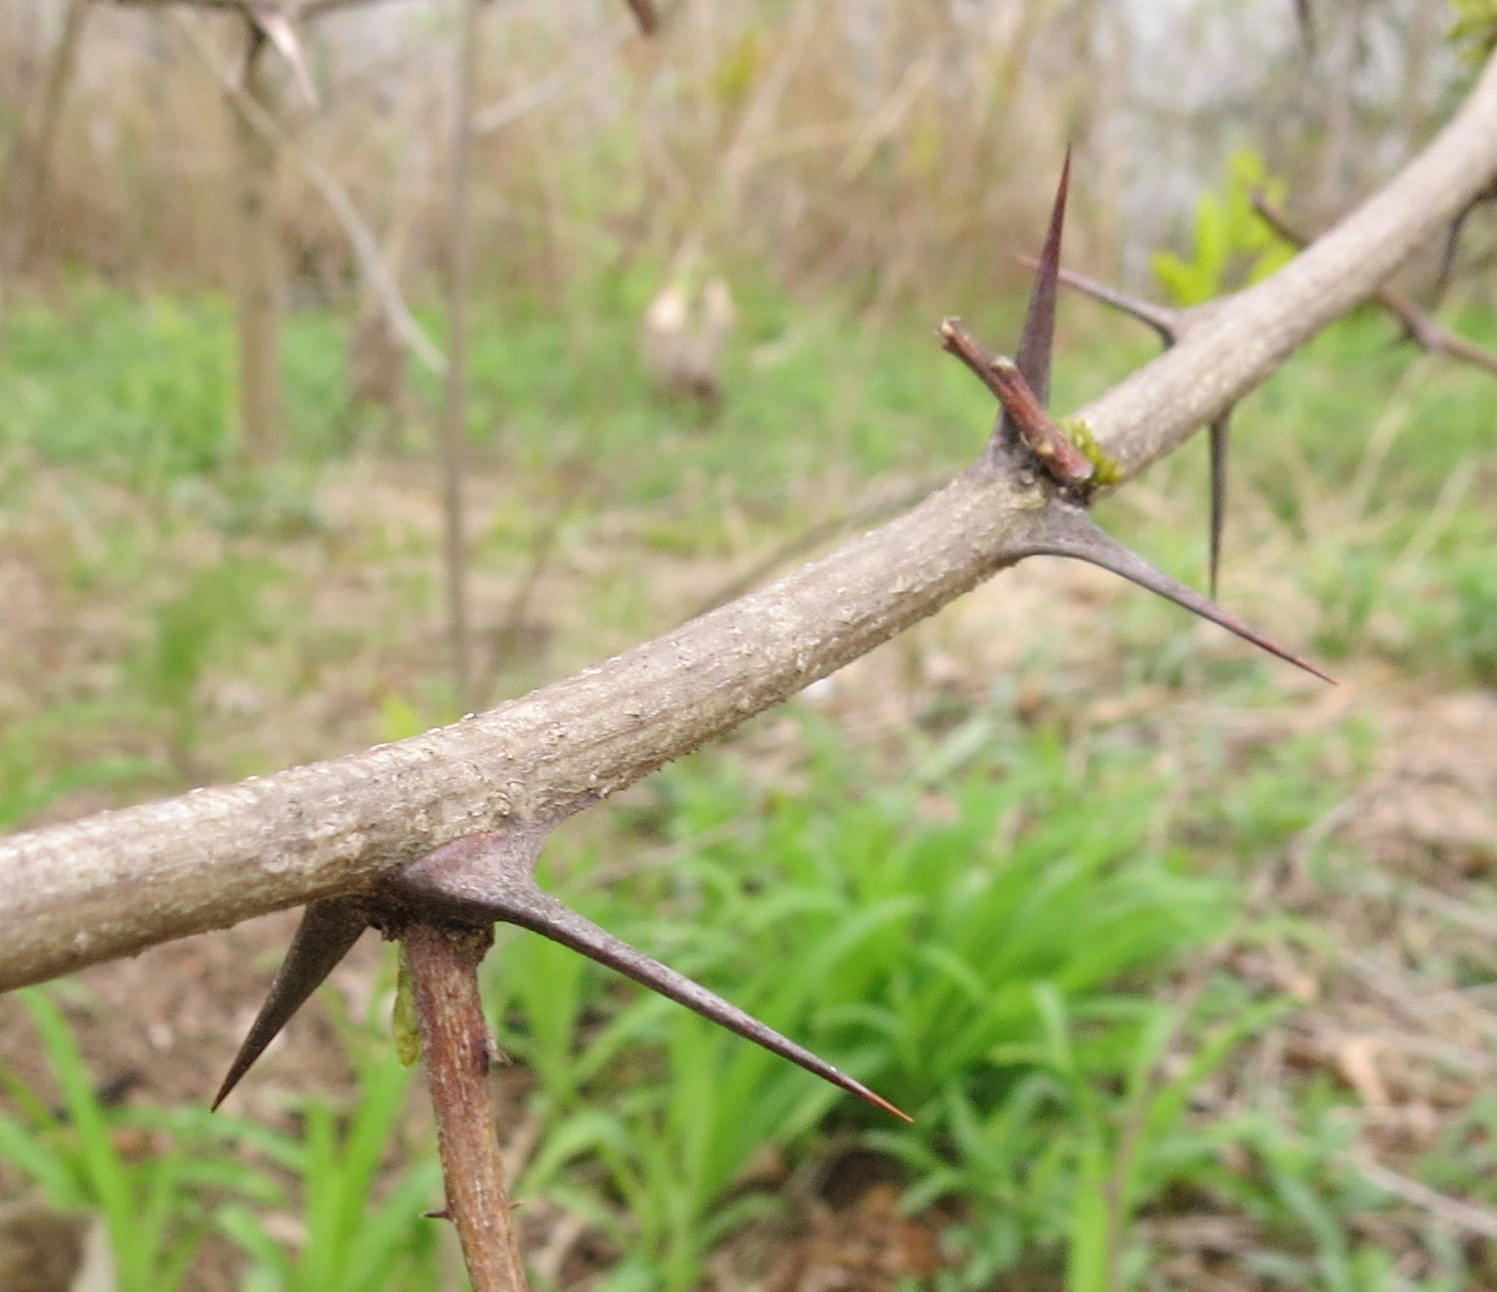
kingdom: Plantae
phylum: Tracheophyta
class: Magnoliopsida
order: Fabales
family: Fabaceae
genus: Robinia
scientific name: Robinia pseudoacacia
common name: Black locust
